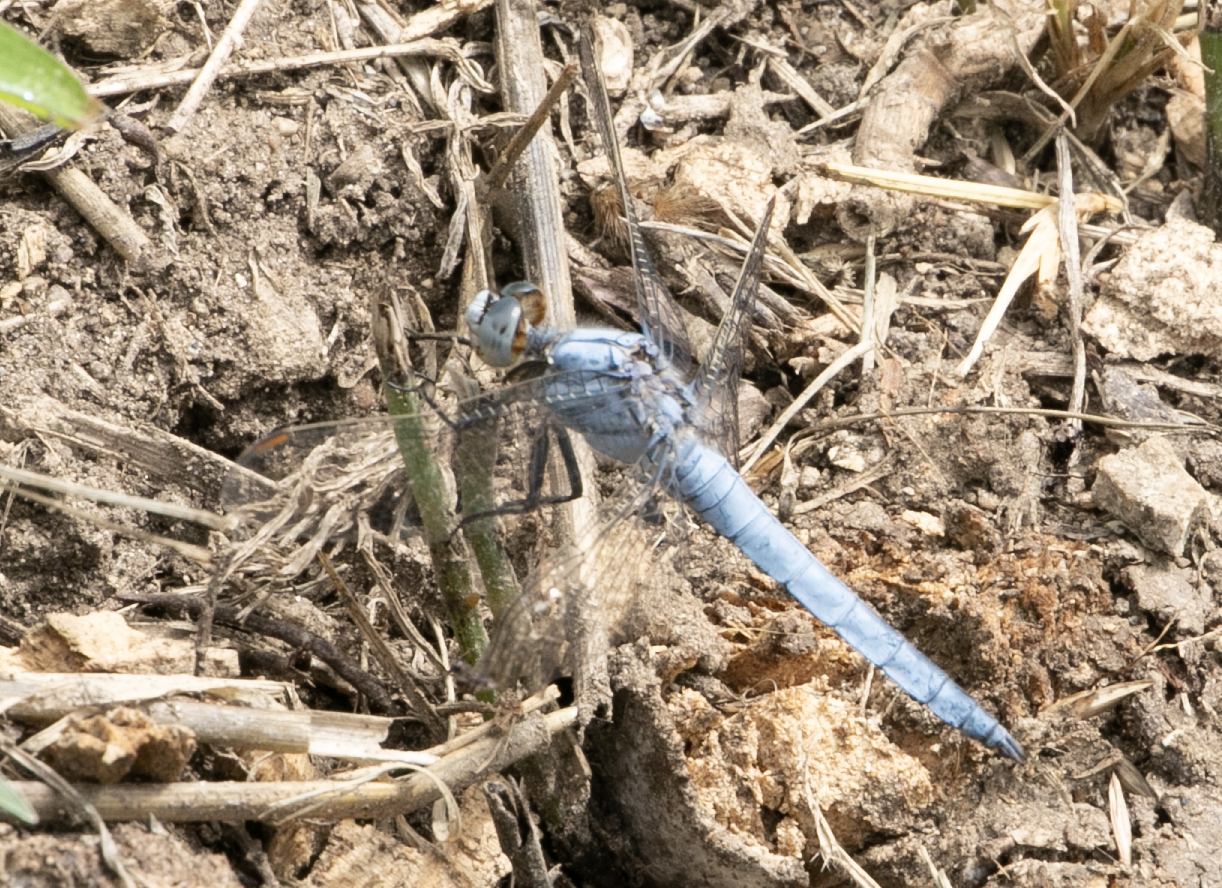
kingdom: Animalia
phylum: Arthropoda
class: Insecta
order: Odonata
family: Libellulidae
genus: Orthetrum
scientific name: Orthetrum brunneum
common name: Southern skimmer
